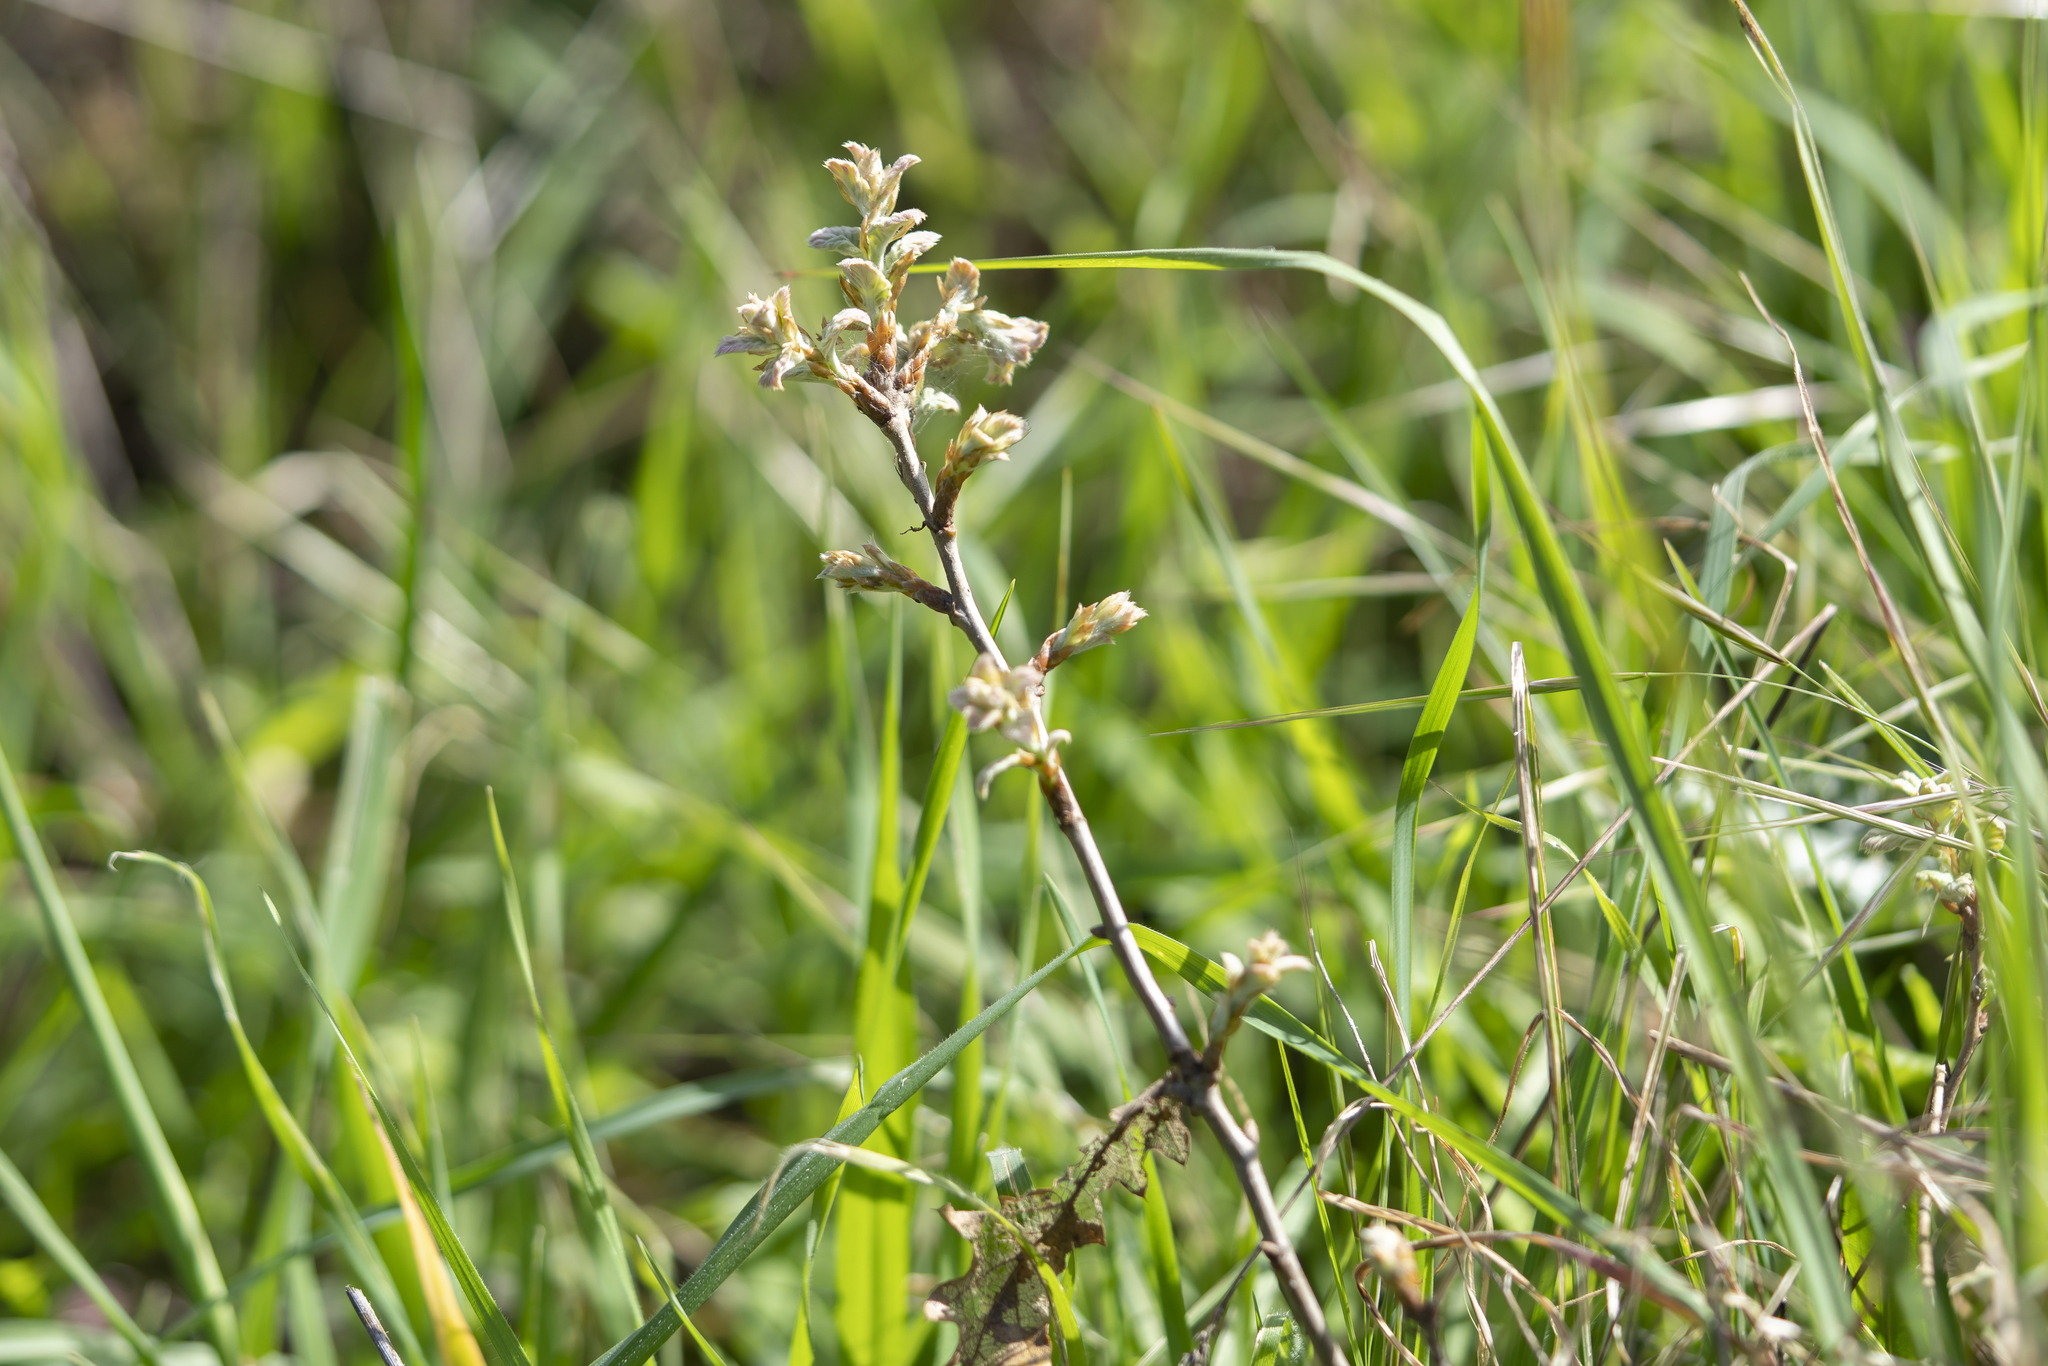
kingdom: Plantae
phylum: Tracheophyta
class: Magnoliopsida
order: Fagales
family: Fagaceae
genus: Quercus
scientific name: Quercus ithaburensis
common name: Tabor oak
